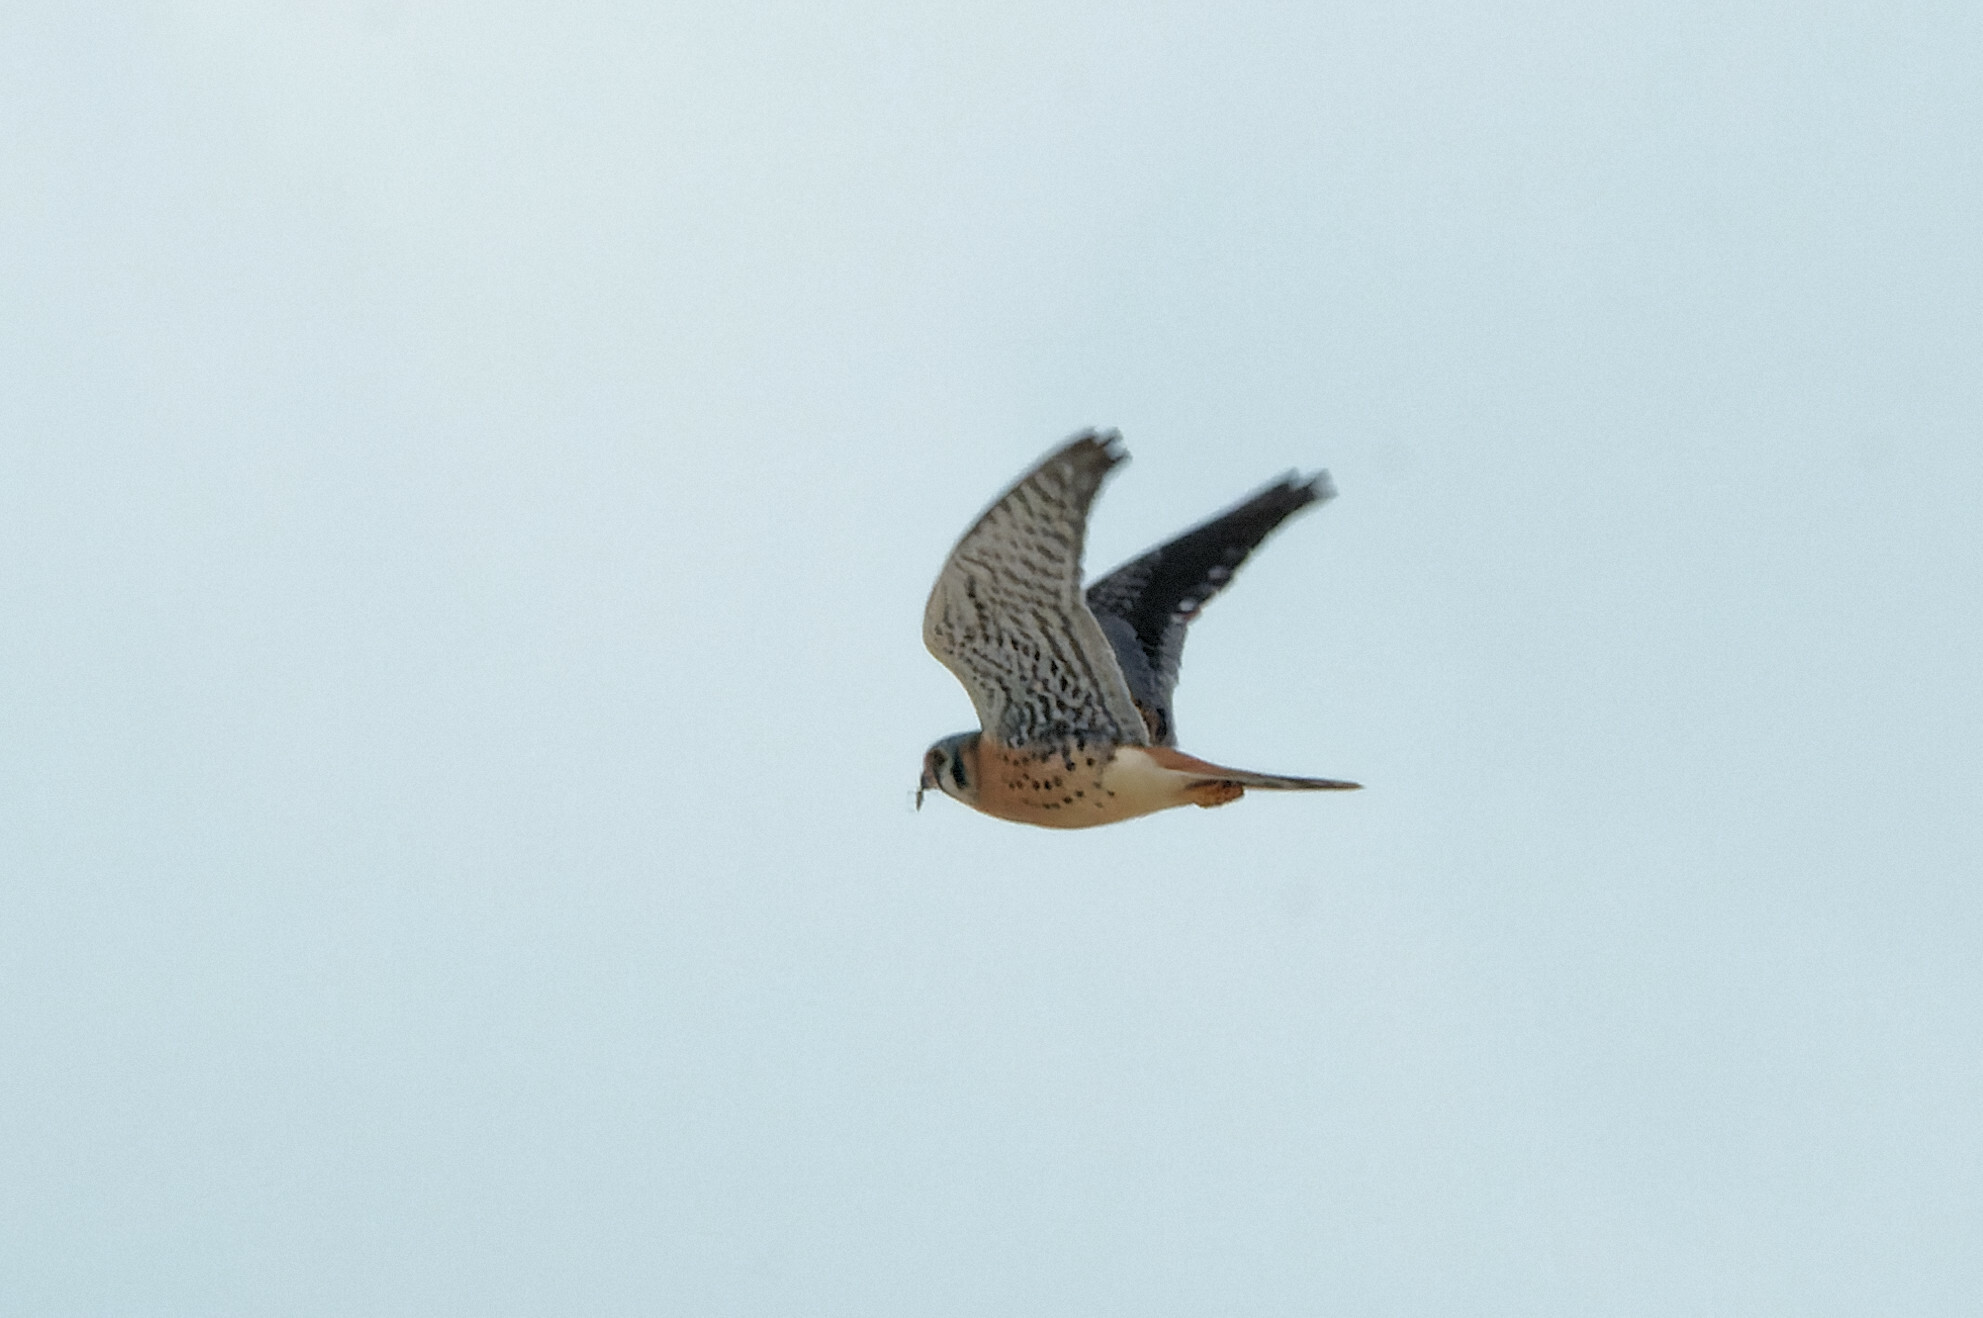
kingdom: Animalia
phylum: Chordata
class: Aves
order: Falconiformes
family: Falconidae
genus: Falco
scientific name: Falco sparverius
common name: American kestrel
